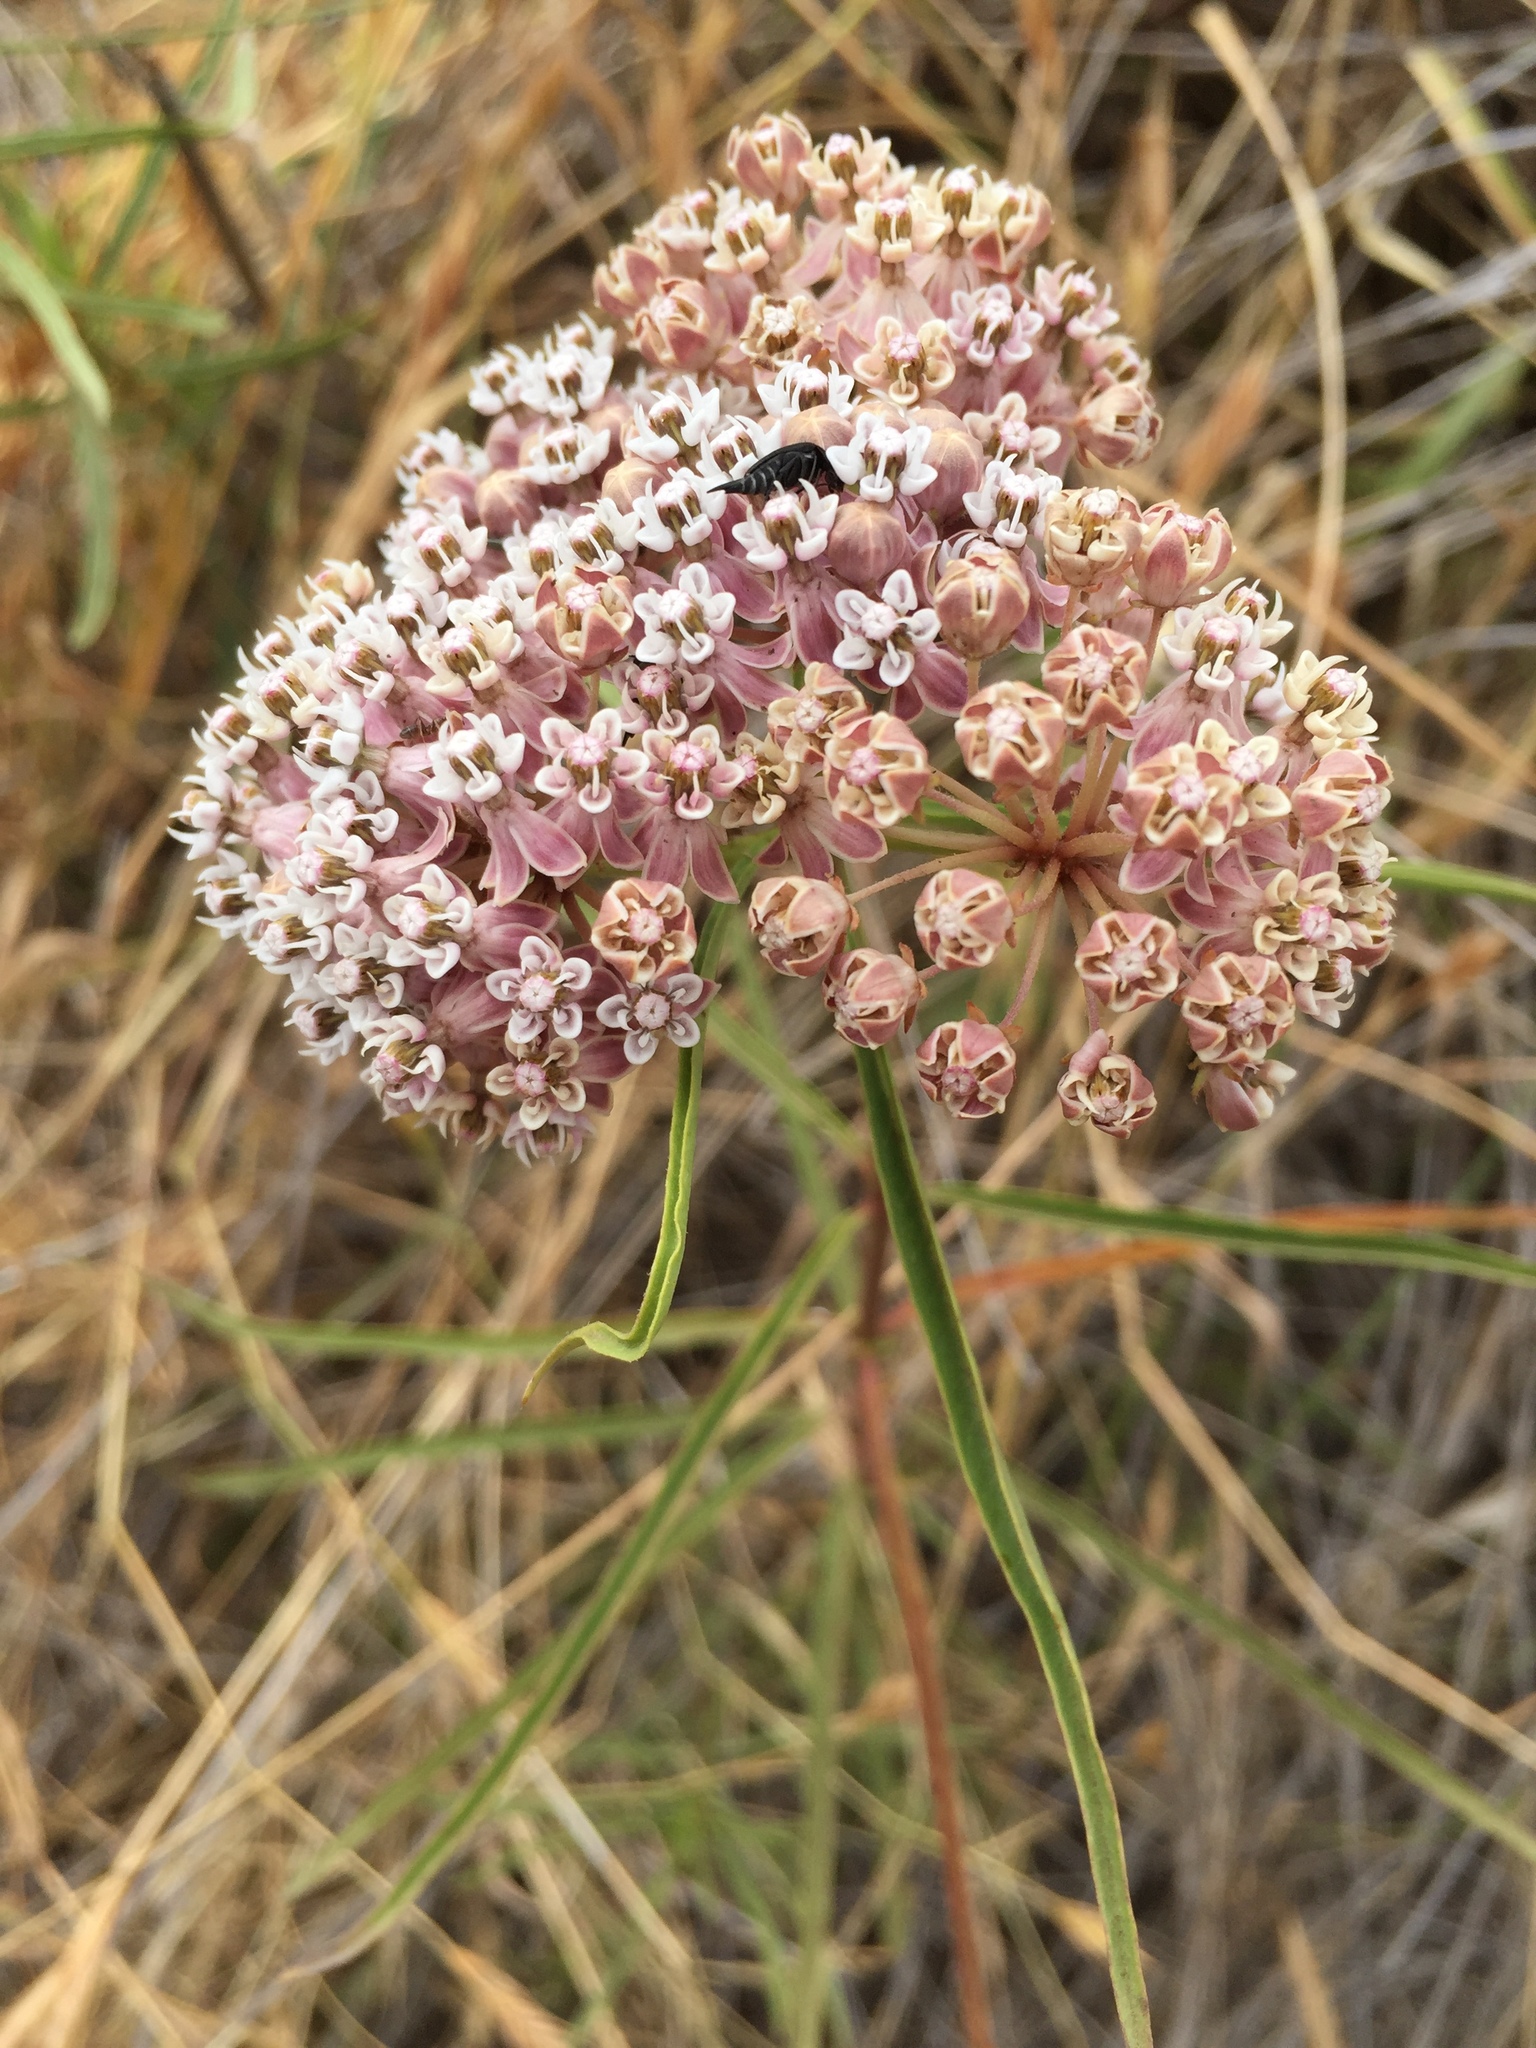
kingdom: Plantae
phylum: Tracheophyta
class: Magnoliopsida
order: Gentianales
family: Apocynaceae
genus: Asclepias
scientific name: Asclepias fascicularis
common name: Mexican milkweed
